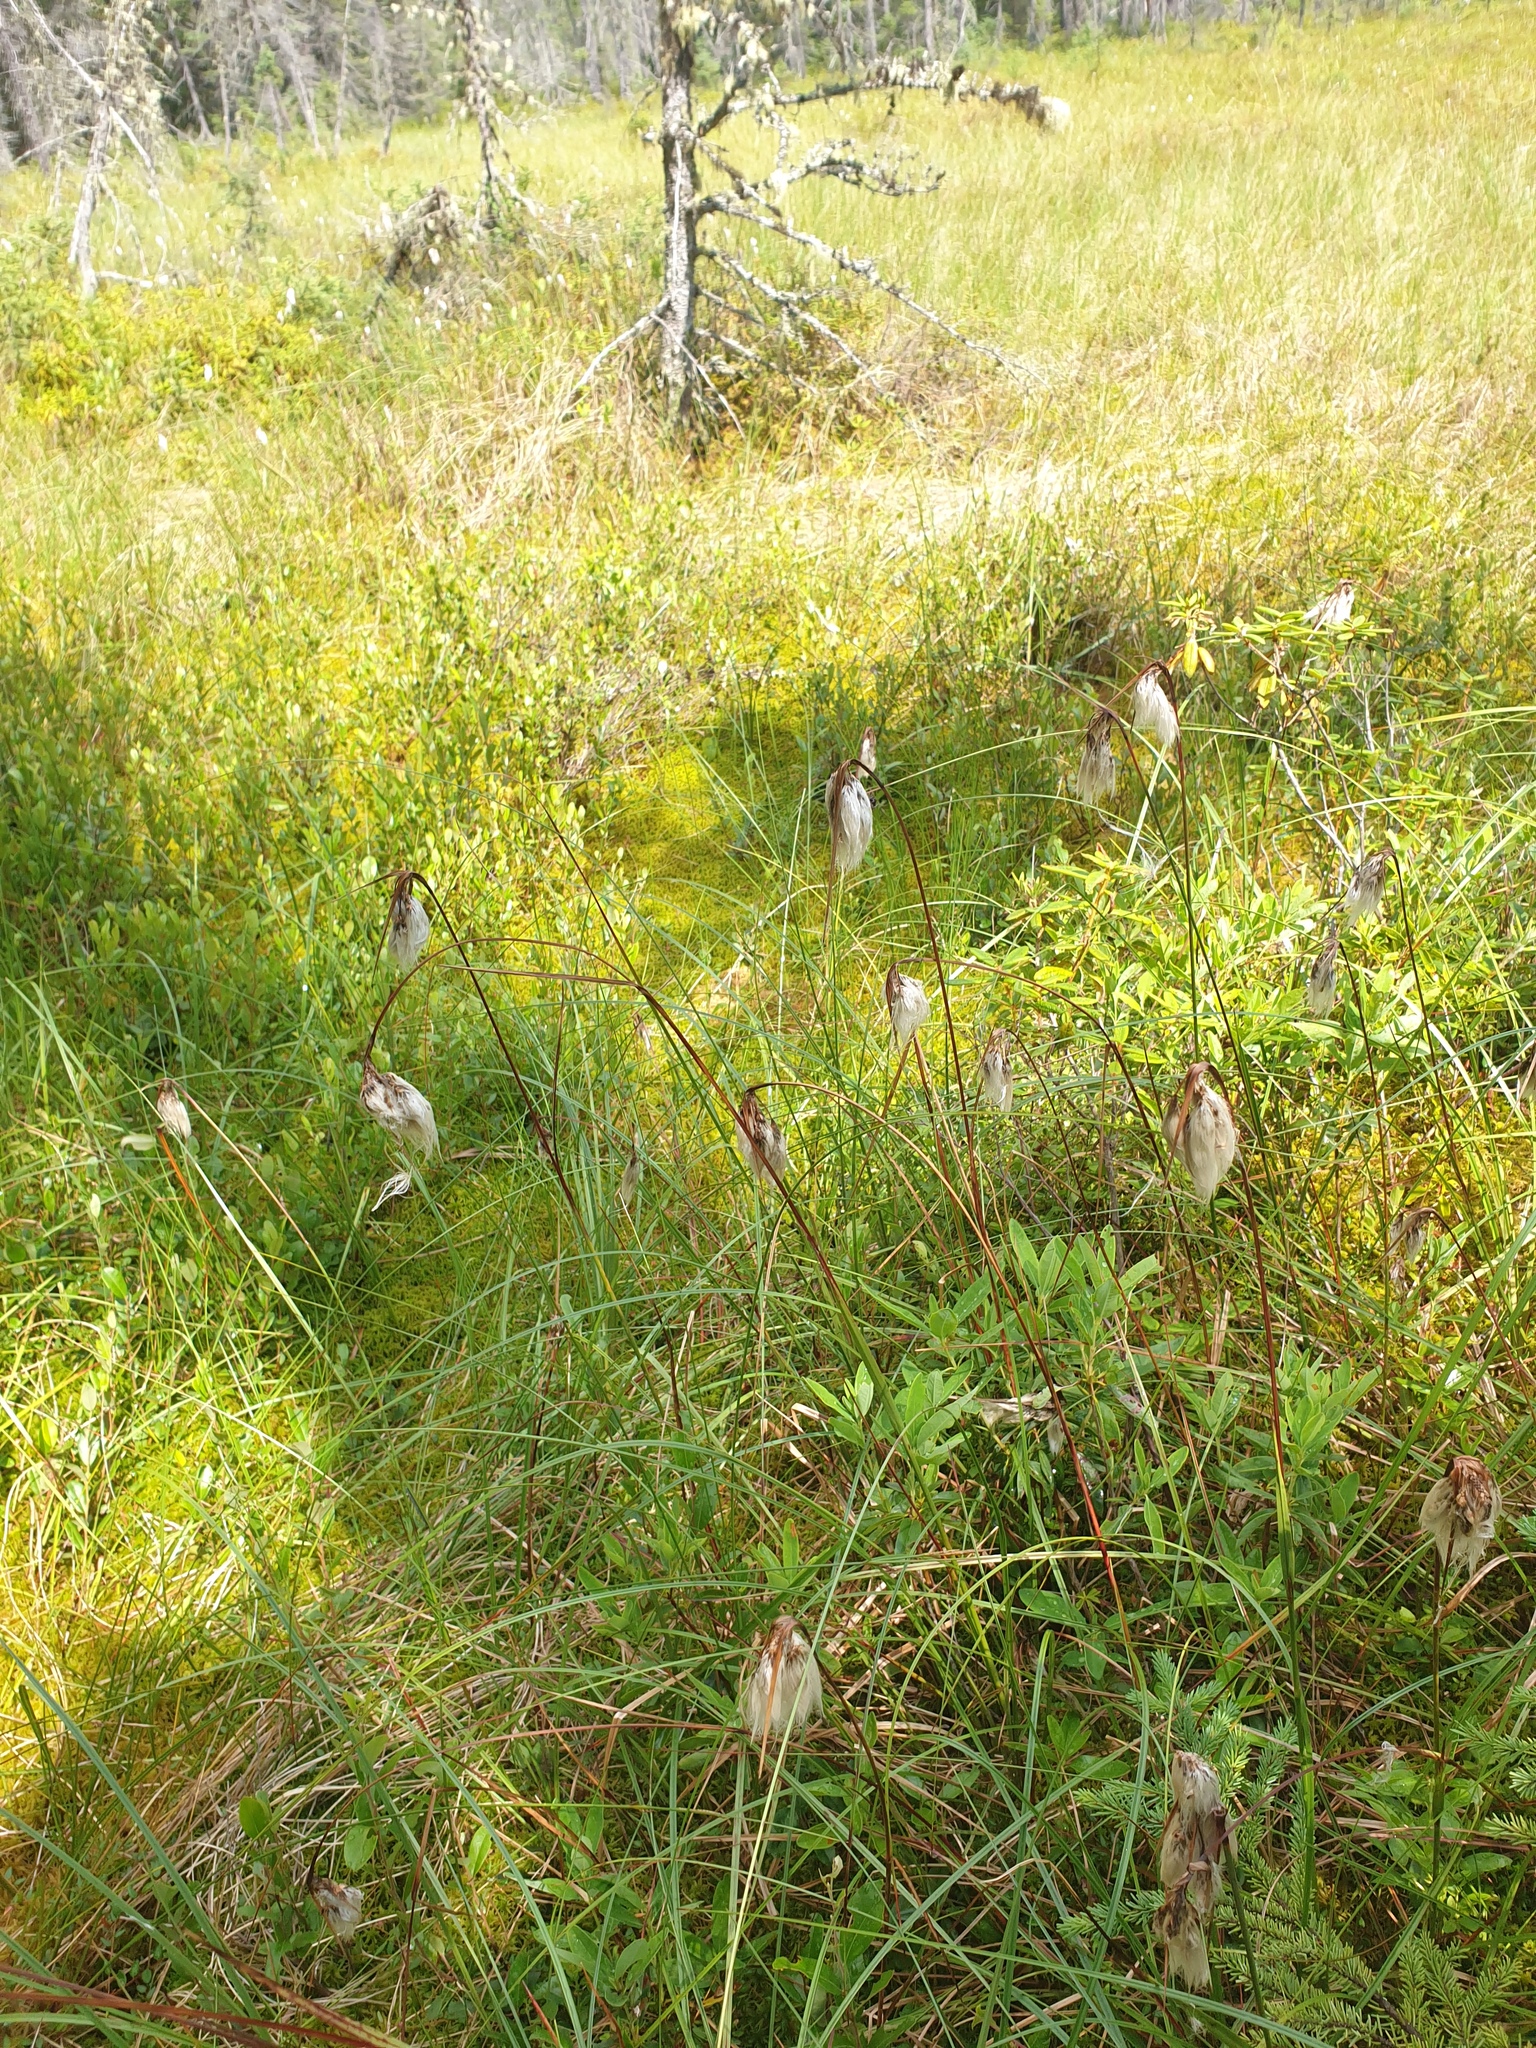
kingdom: Plantae
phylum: Tracheophyta
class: Liliopsida
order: Poales
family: Cyperaceae
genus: Eriophorum
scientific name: Eriophorum angustifolium
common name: Common cottongrass
